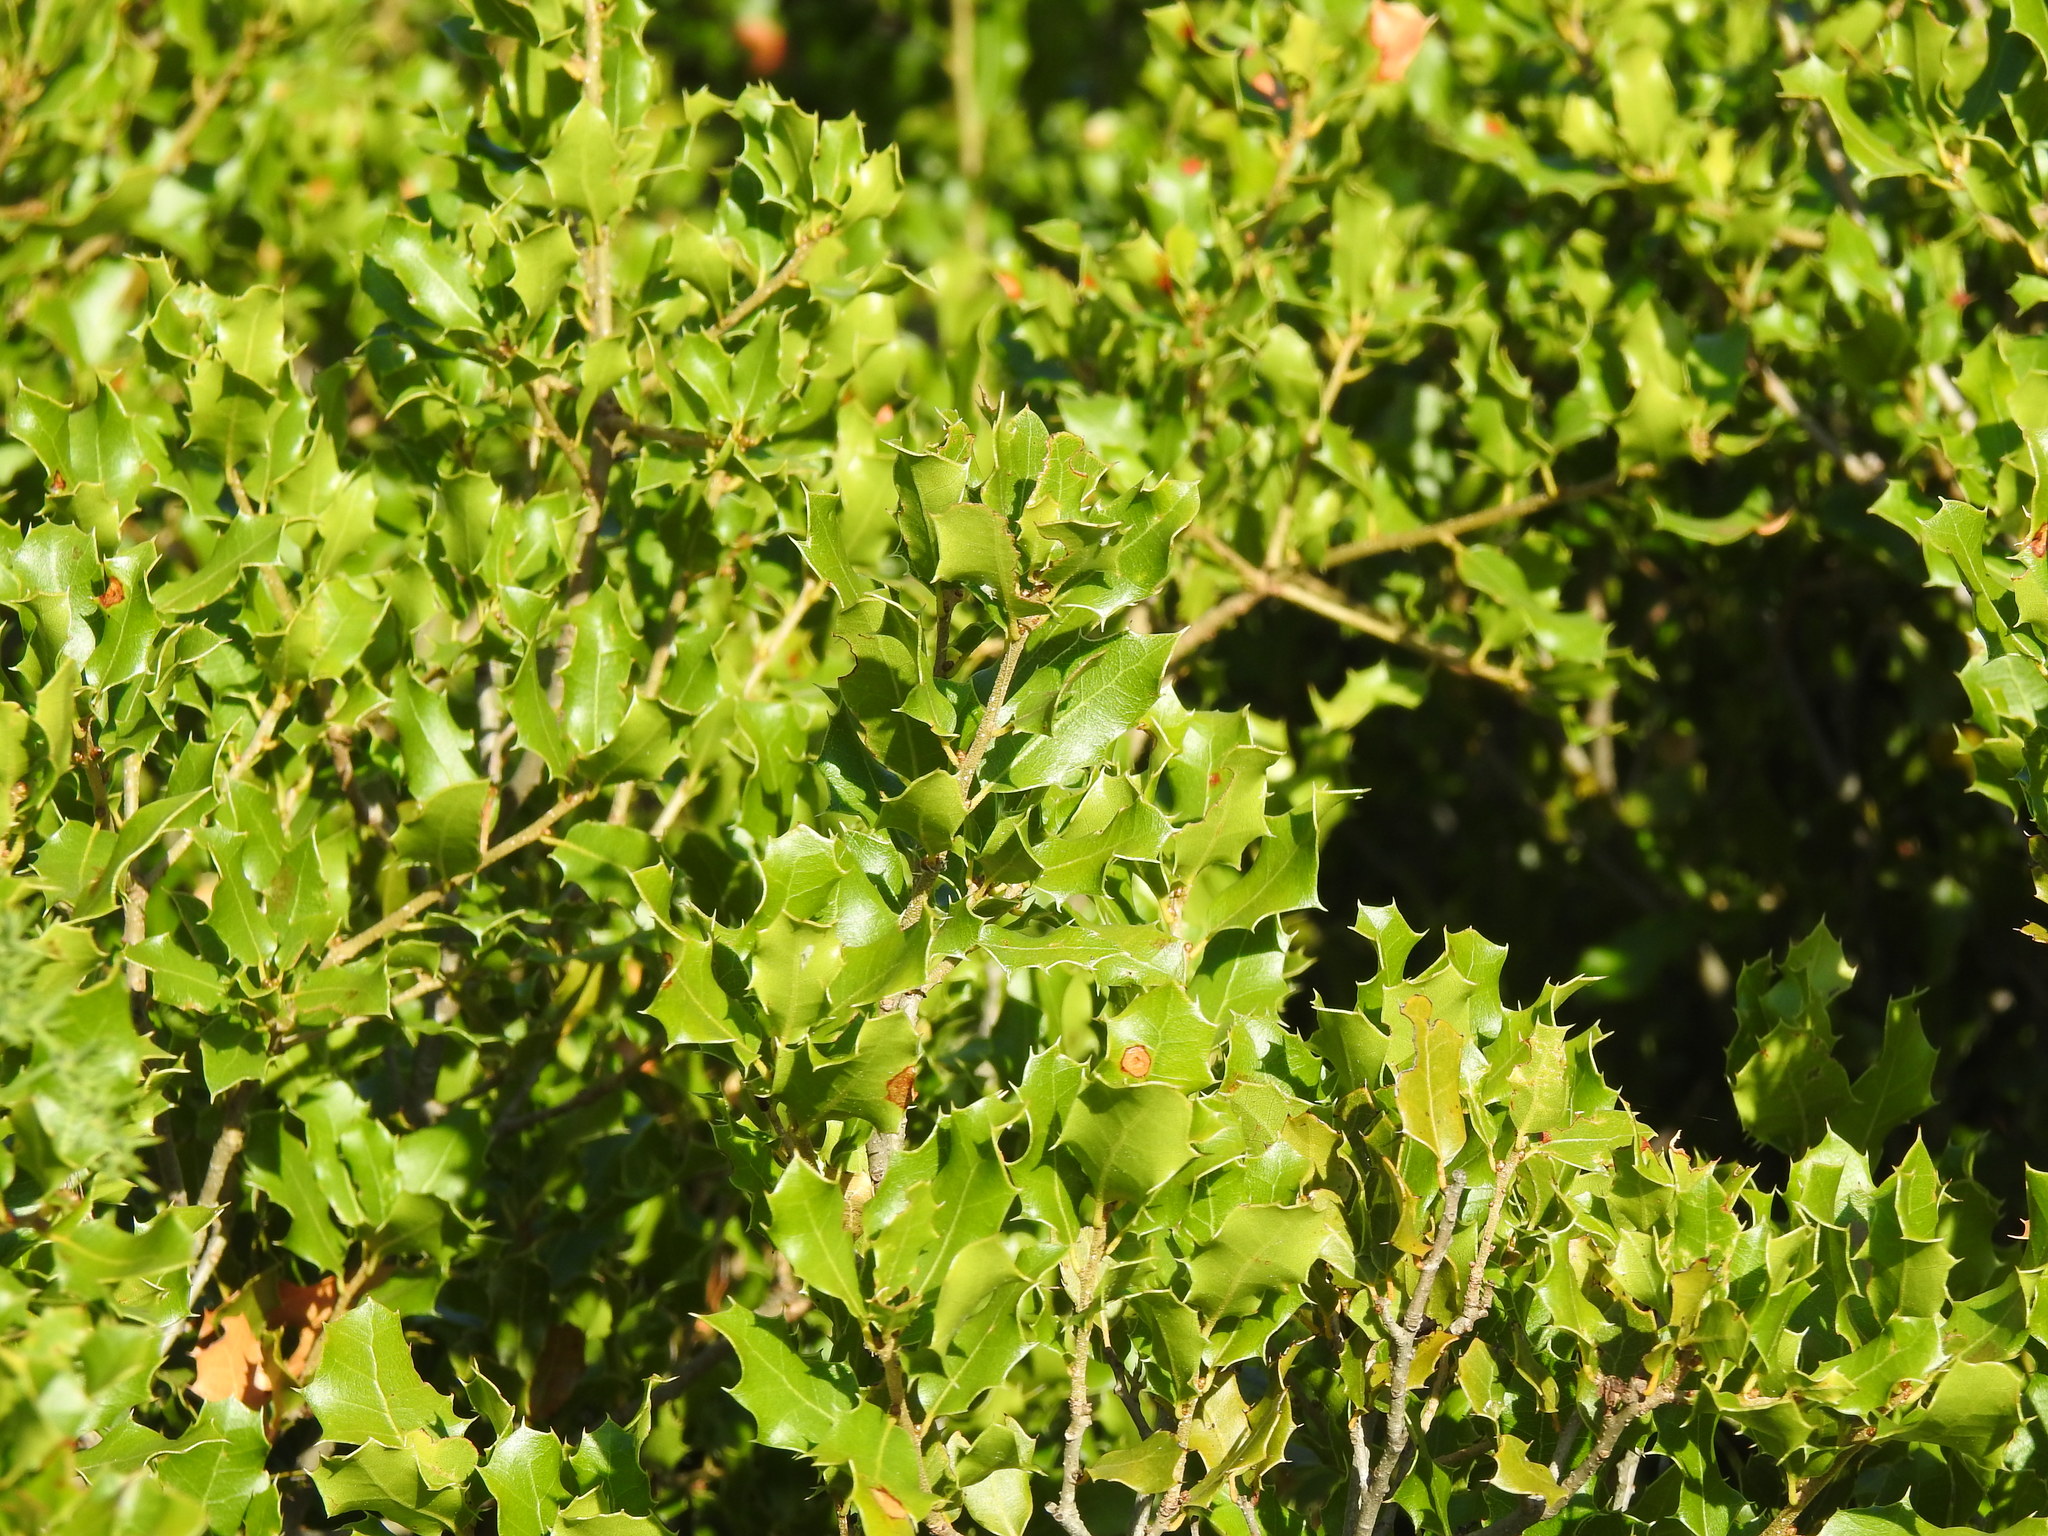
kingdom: Plantae
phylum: Tracheophyta
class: Magnoliopsida
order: Fagales
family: Fagaceae
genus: Quercus
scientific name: Quercus coccifera
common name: Kermes oak
